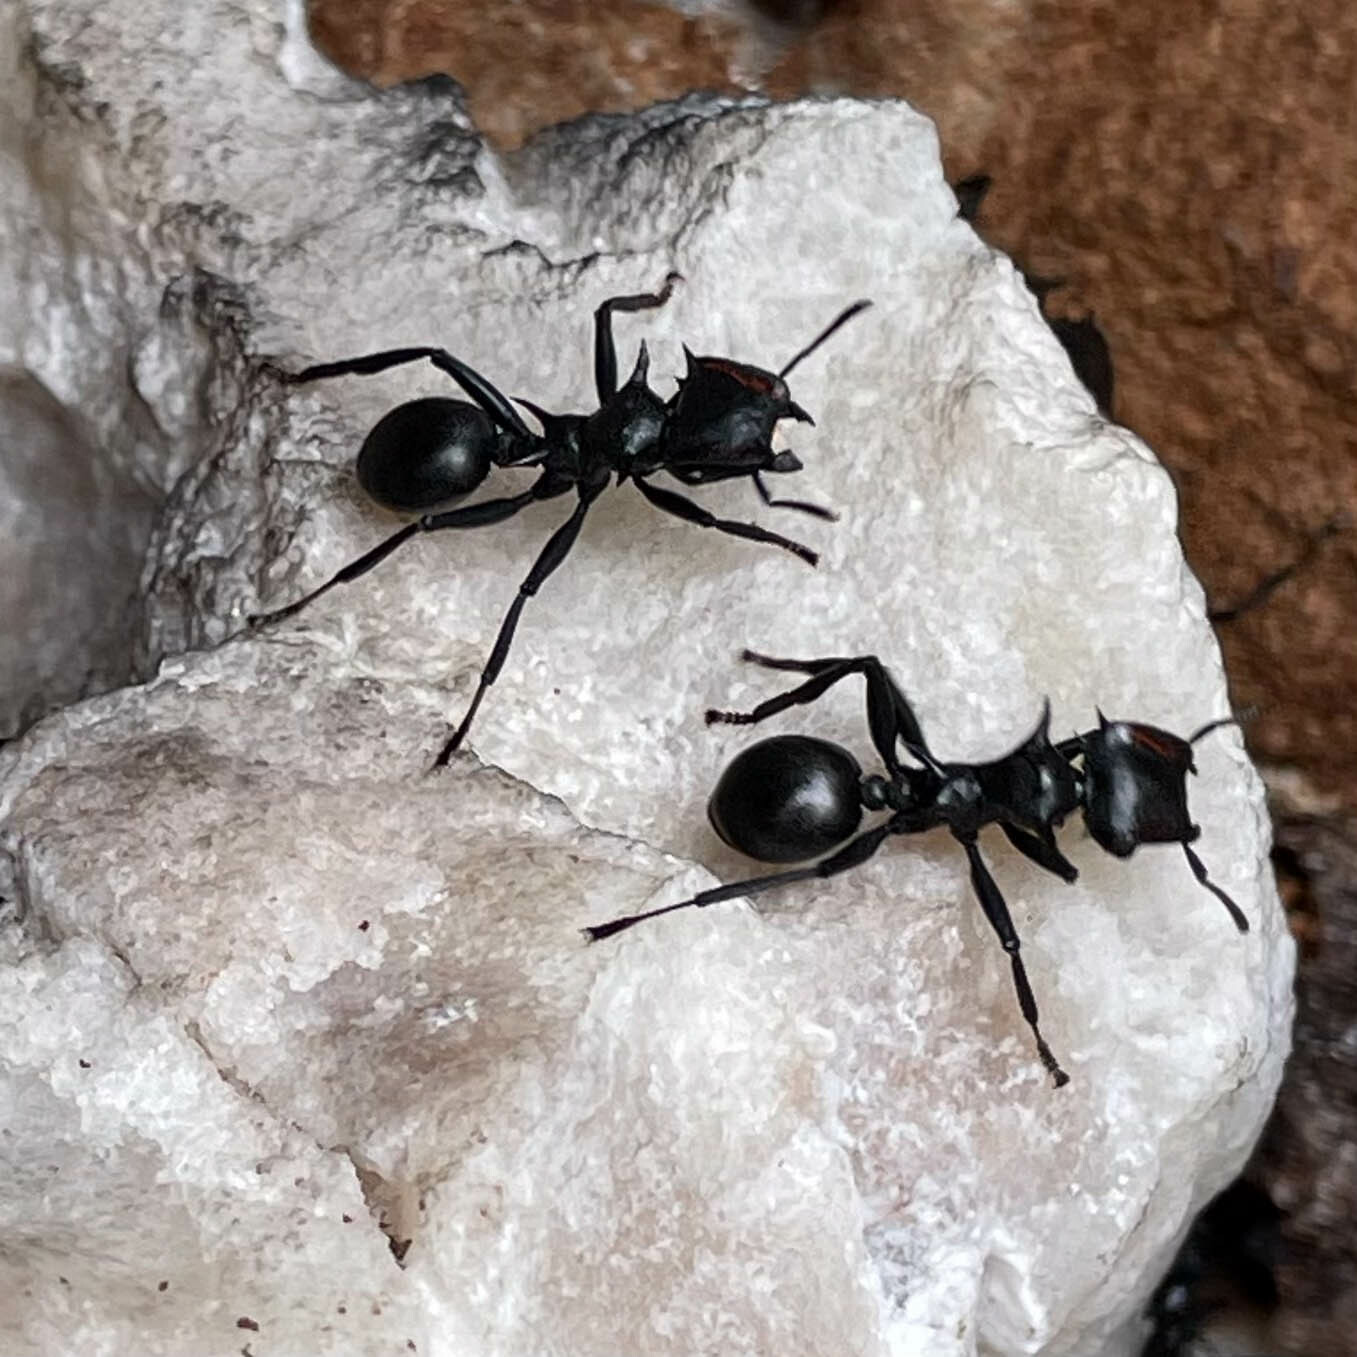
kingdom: Animalia
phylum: Arthropoda
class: Insecta
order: Hymenoptera
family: Formicidae
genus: Cephalotes
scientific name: Cephalotes atratus
